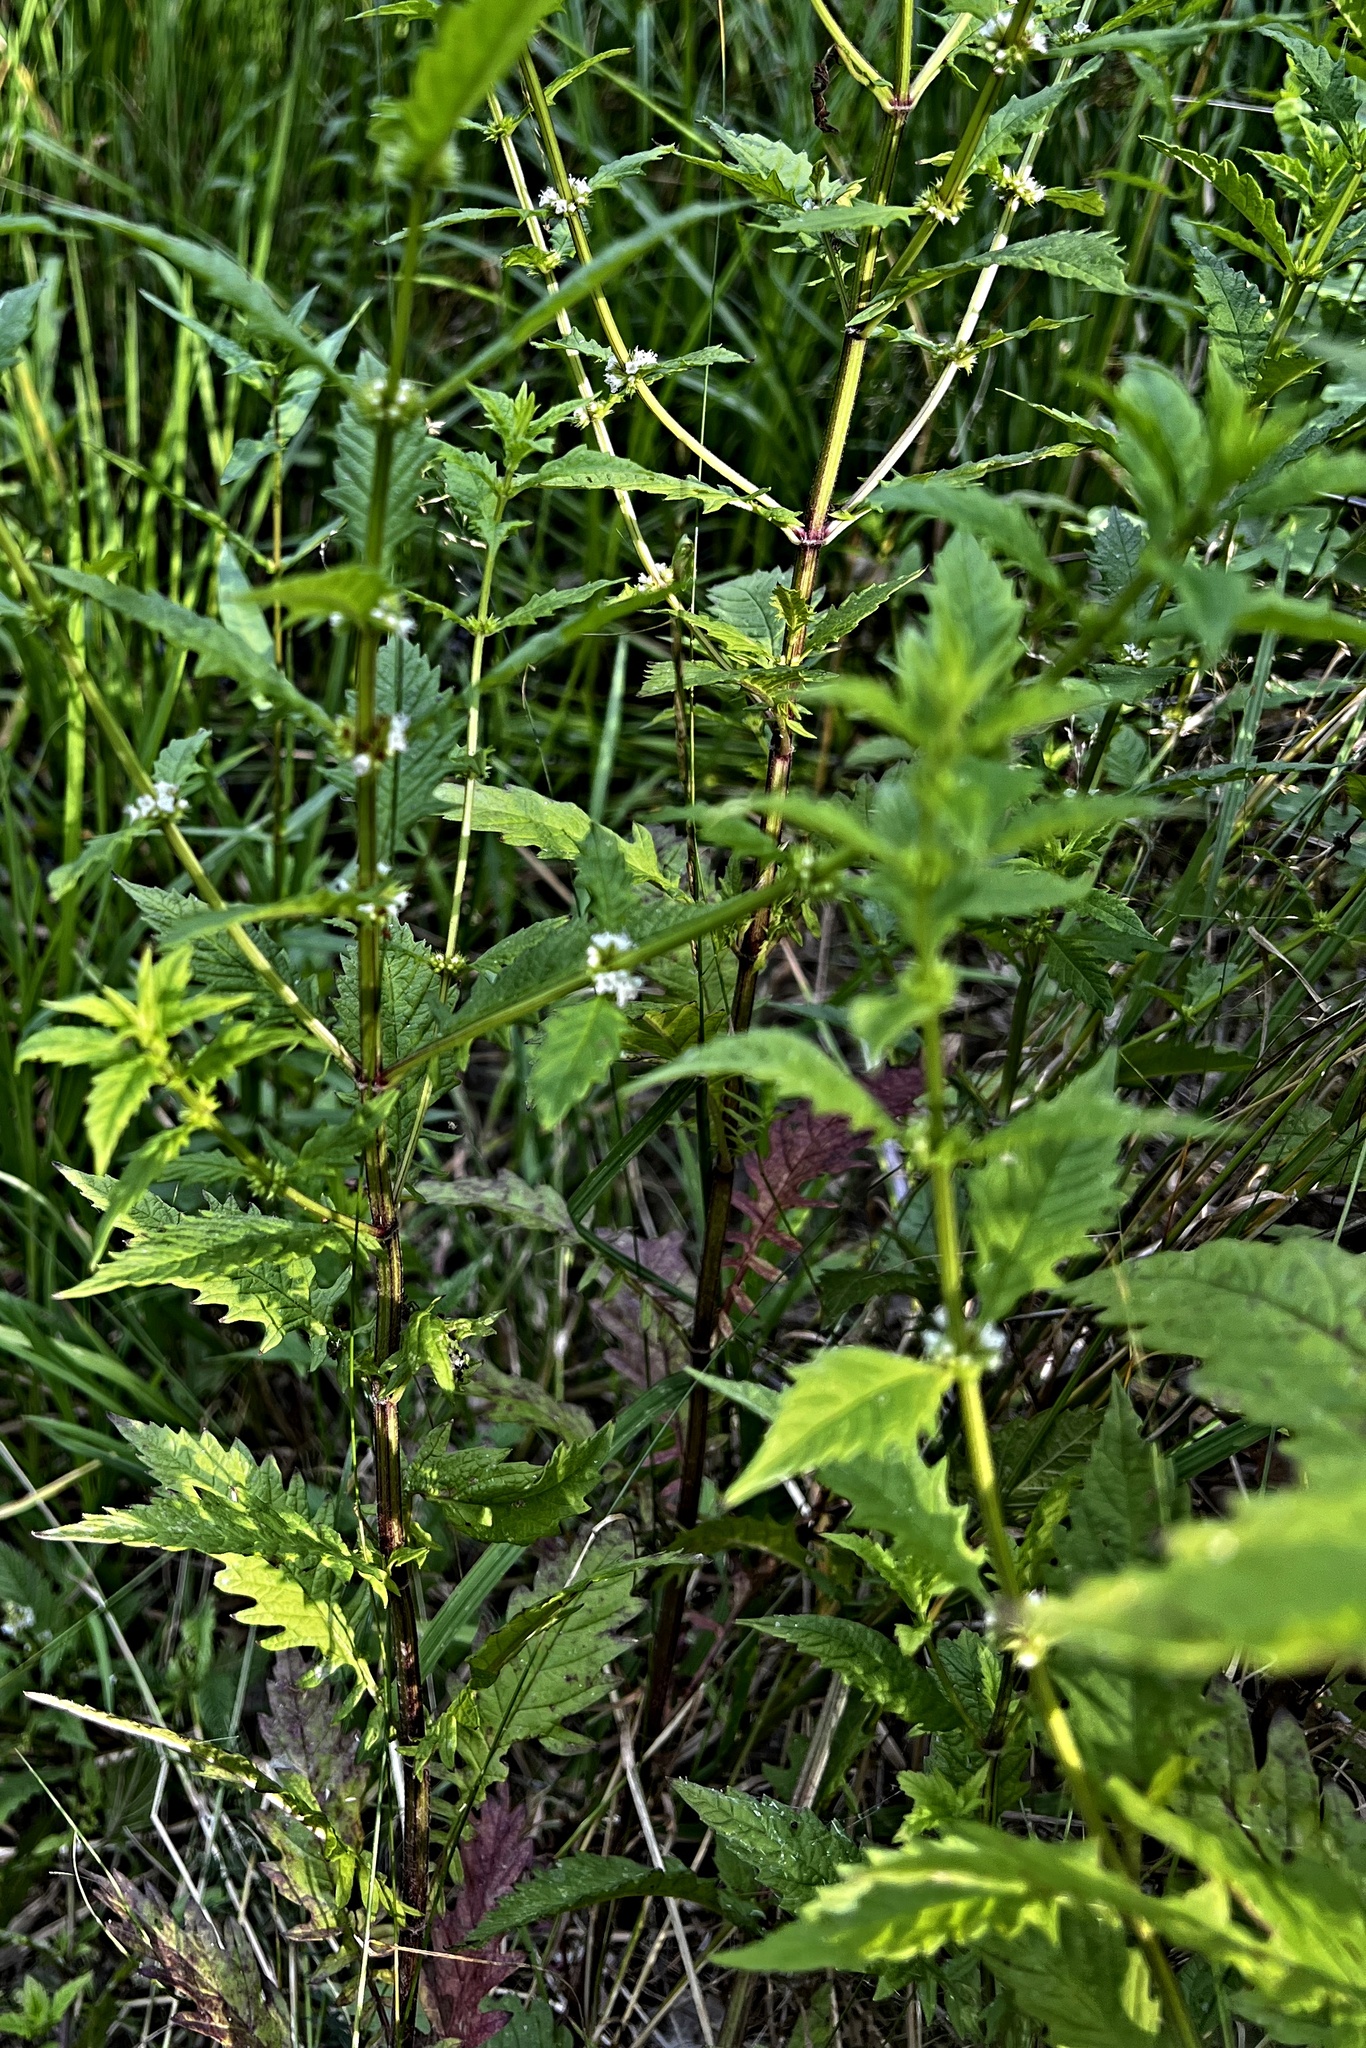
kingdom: Plantae
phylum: Tracheophyta
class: Magnoliopsida
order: Lamiales
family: Lamiaceae
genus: Lycopus
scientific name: Lycopus europaeus
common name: European bugleweed
